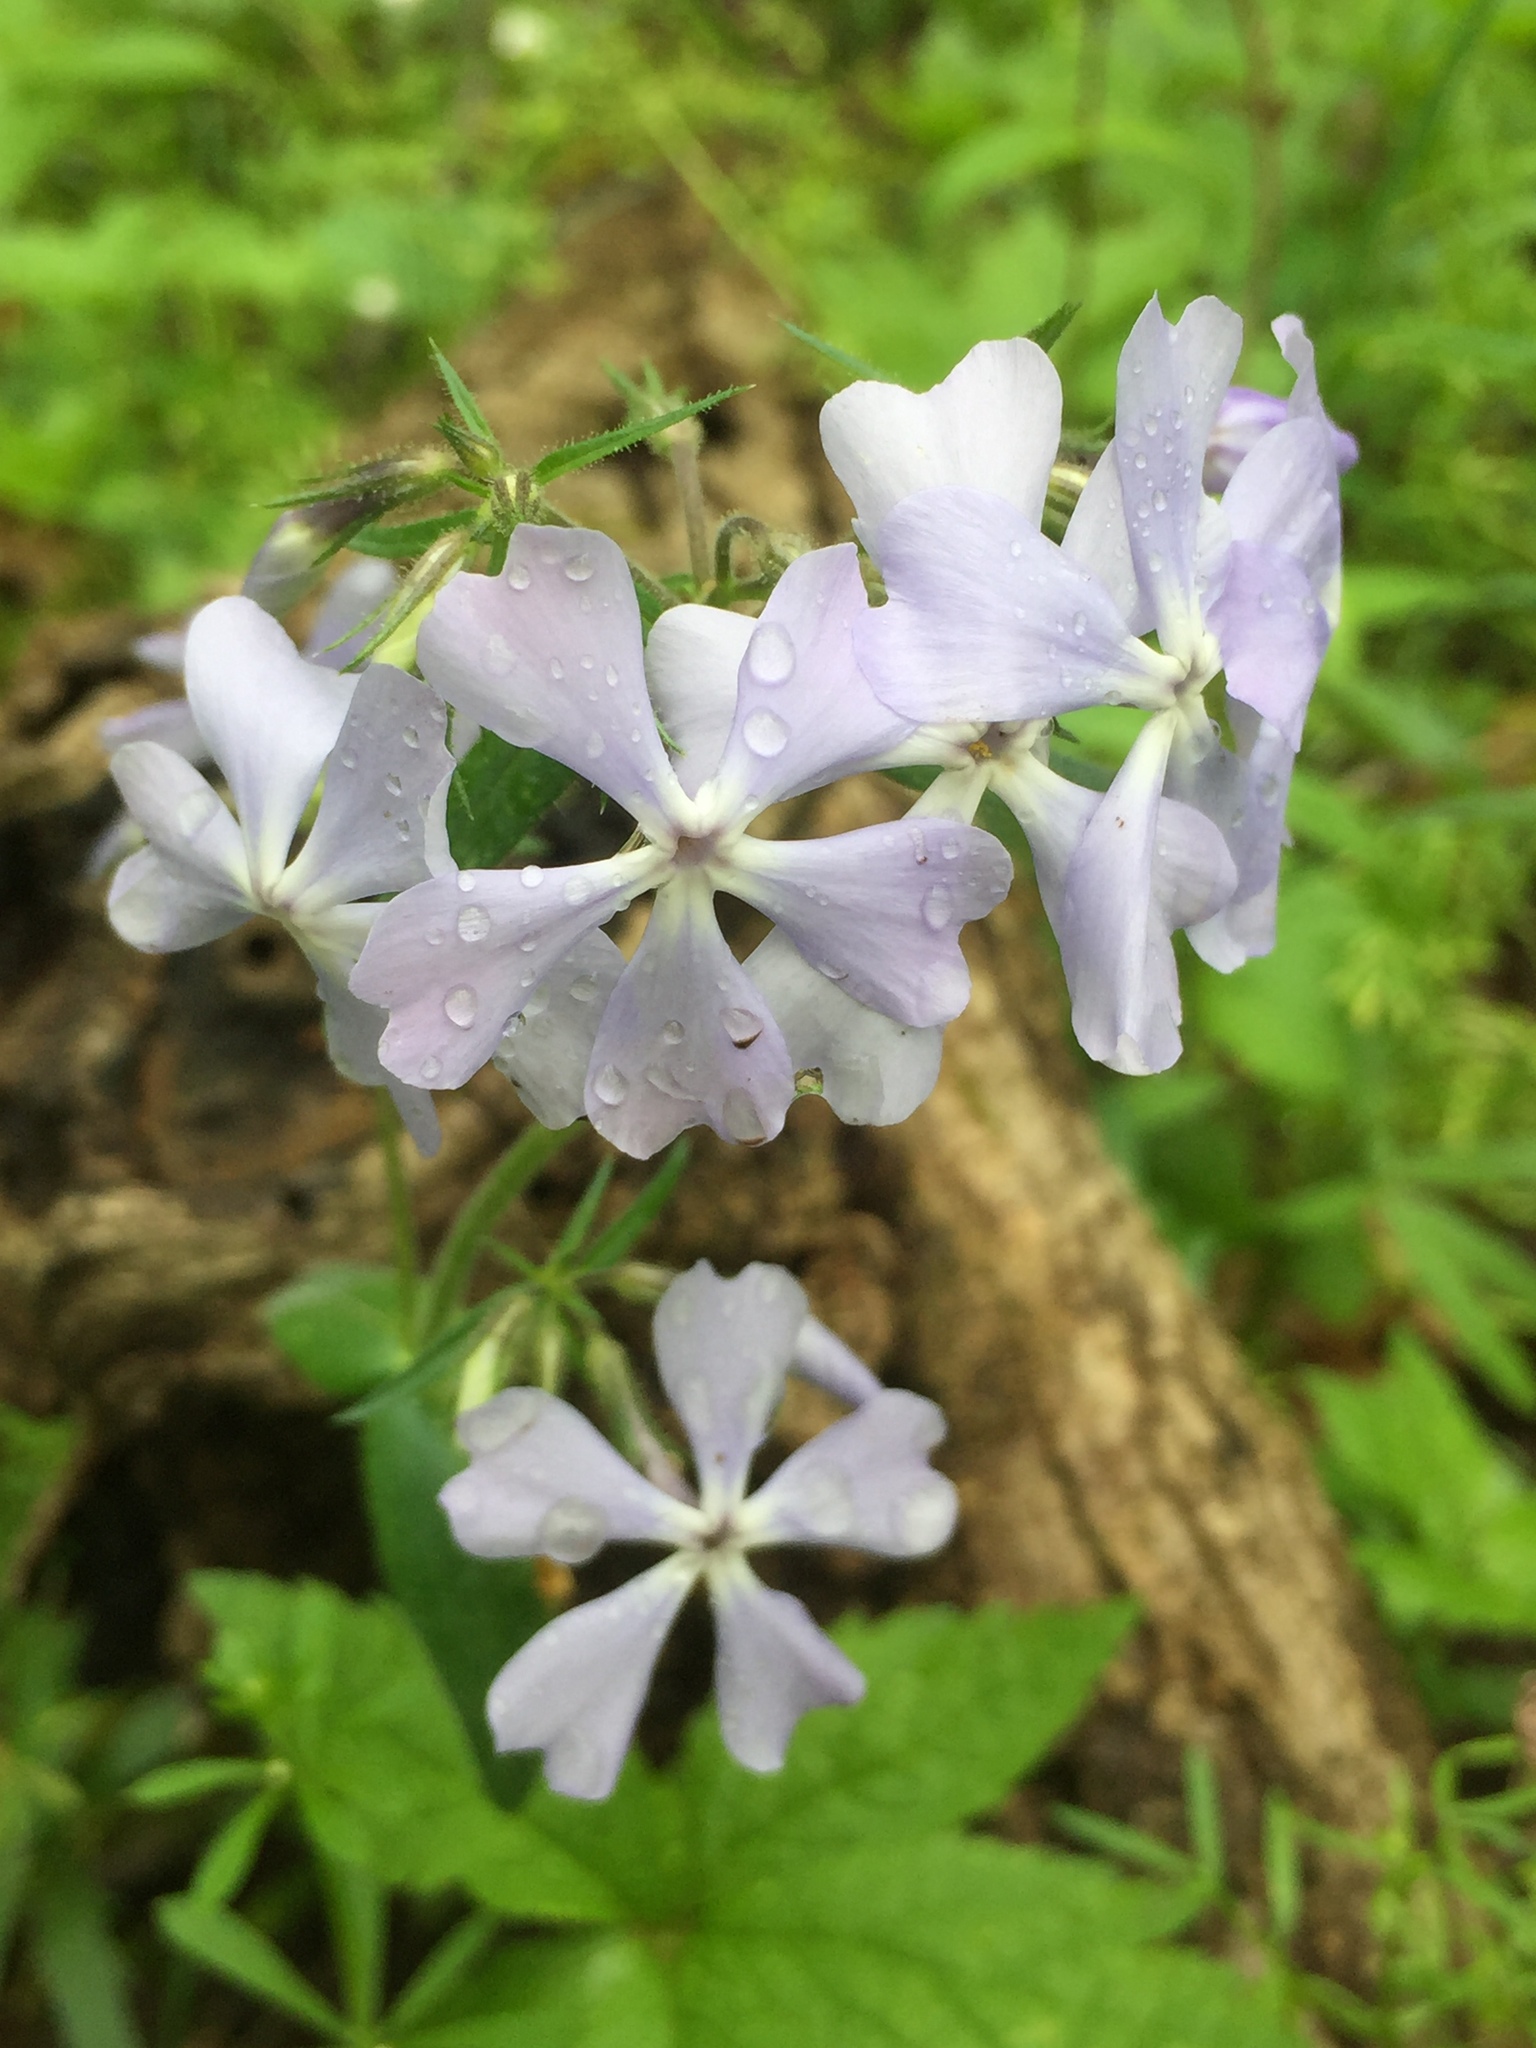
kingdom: Plantae
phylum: Tracheophyta
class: Magnoliopsida
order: Ericales
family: Polemoniaceae
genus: Phlox
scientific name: Phlox divaricata
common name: Blue phlox
